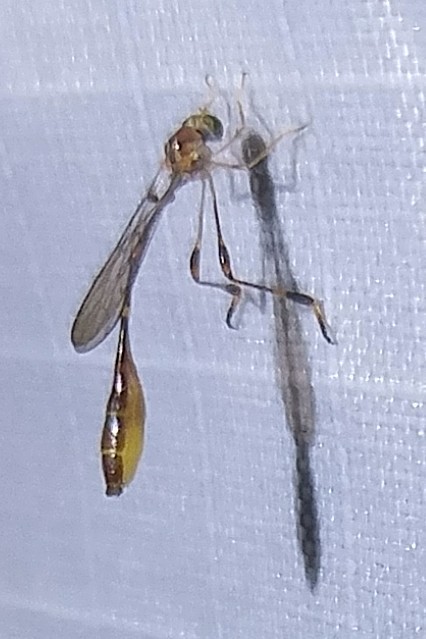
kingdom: Animalia
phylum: Arthropoda
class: Insecta
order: Diptera
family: Asilidae
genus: Leptopteromyia
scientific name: Leptopteromyia americana
